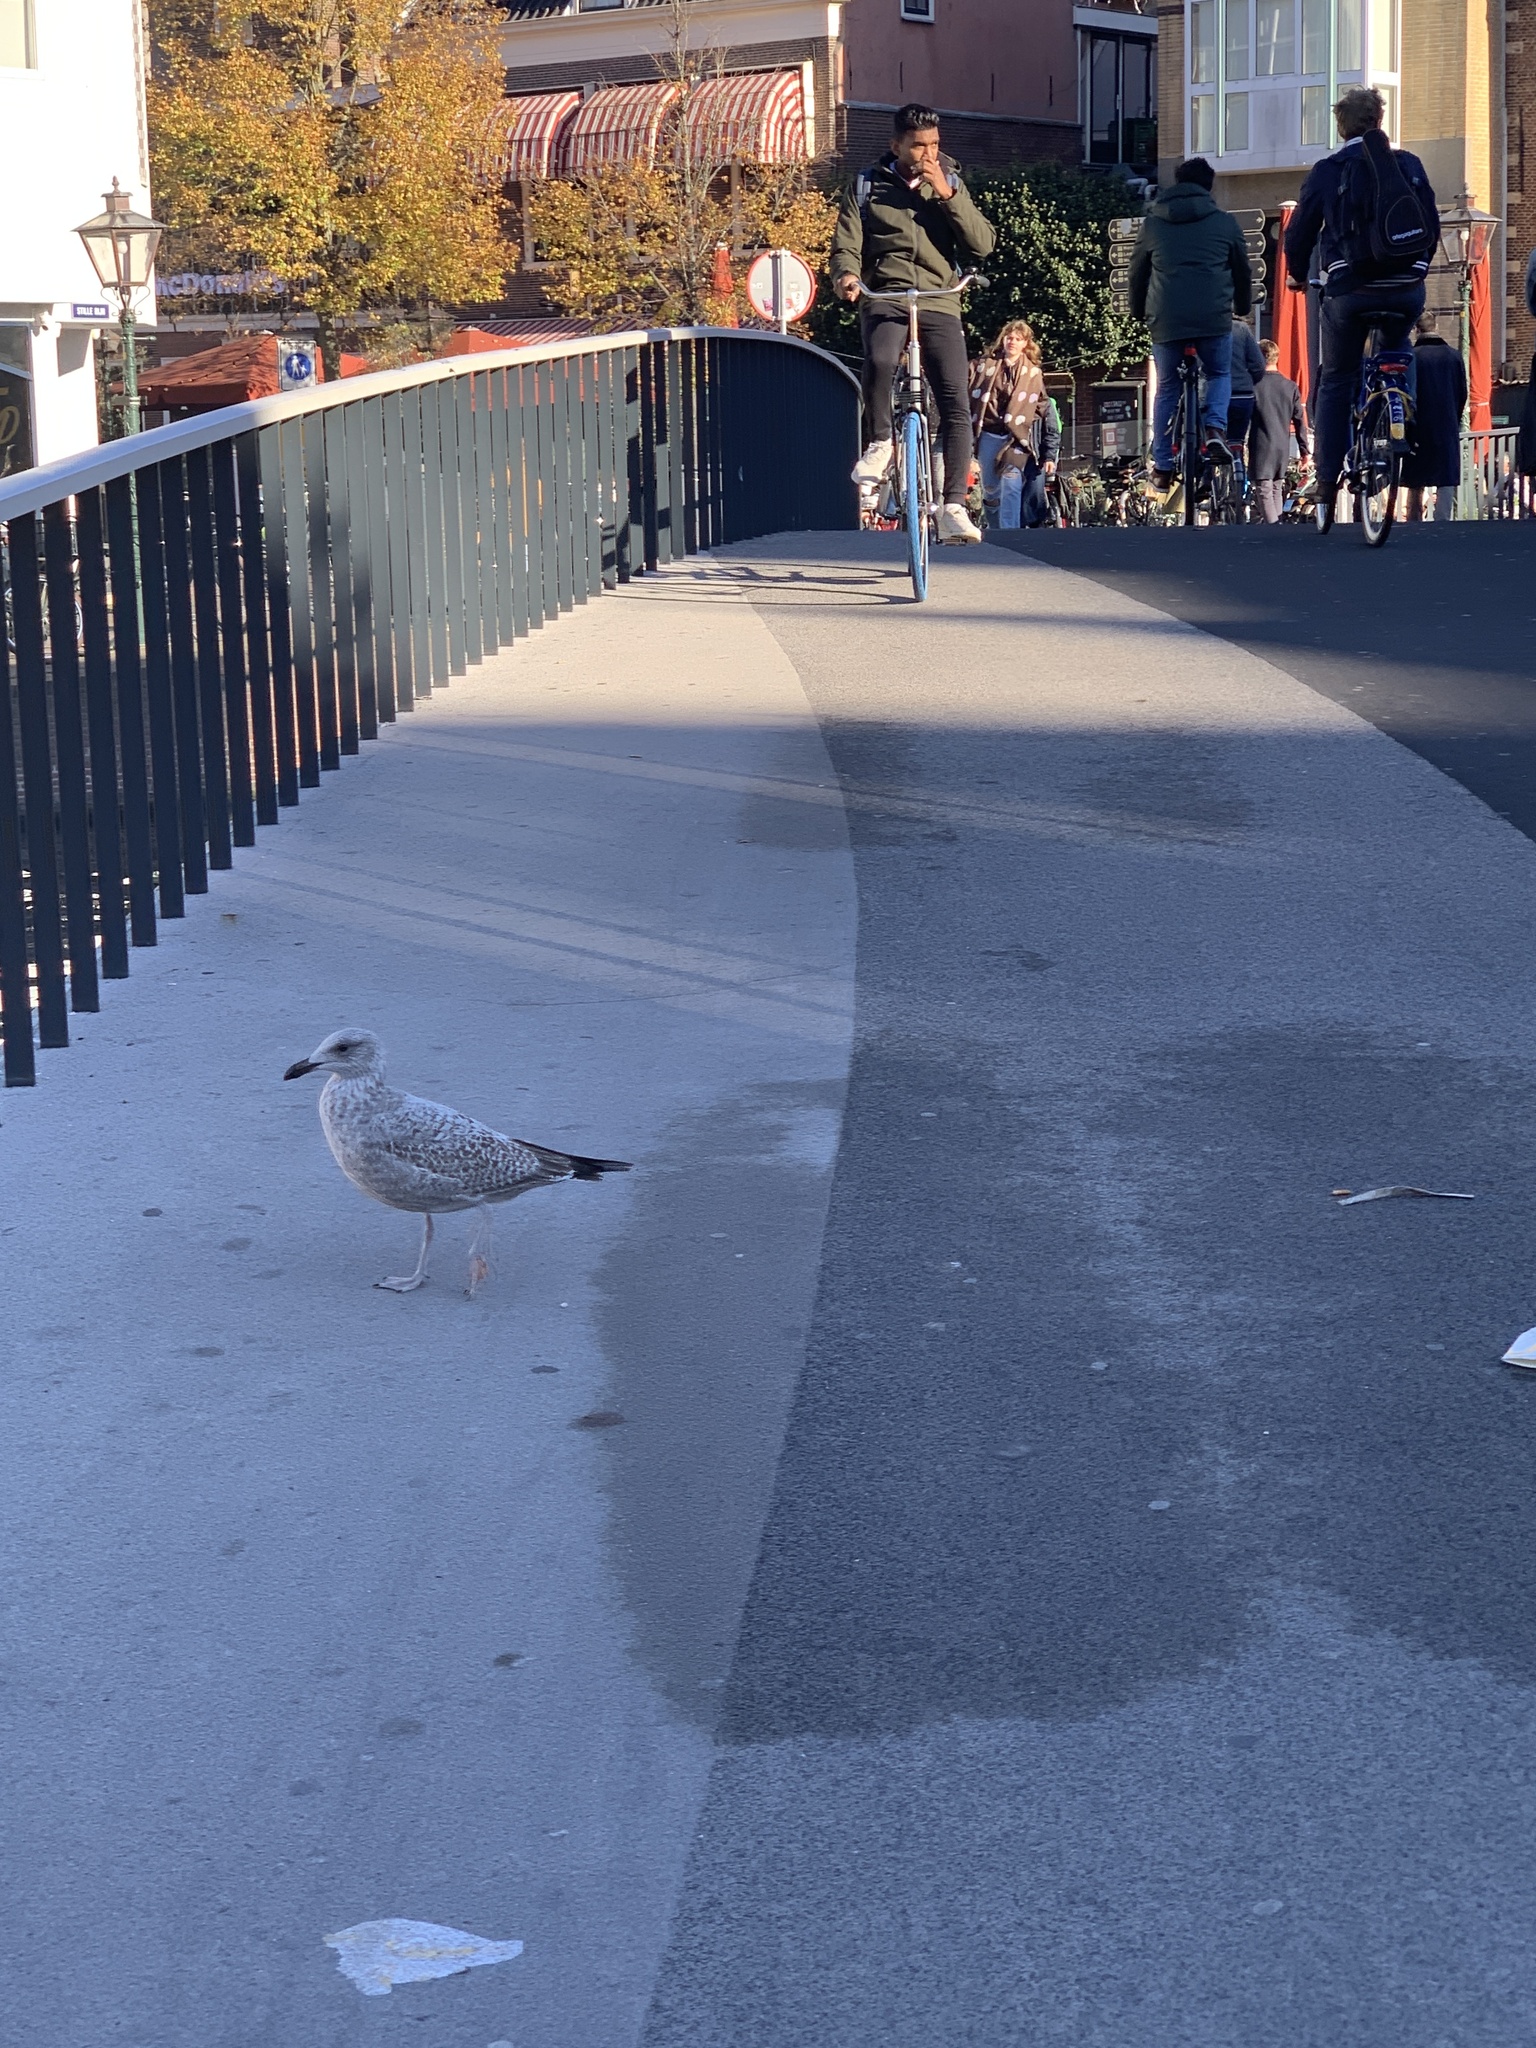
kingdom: Animalia
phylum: Chordata
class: Aves
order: Charadriiformes
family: Laridae
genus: Larus
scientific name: Larus argentatus
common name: Herring gull
